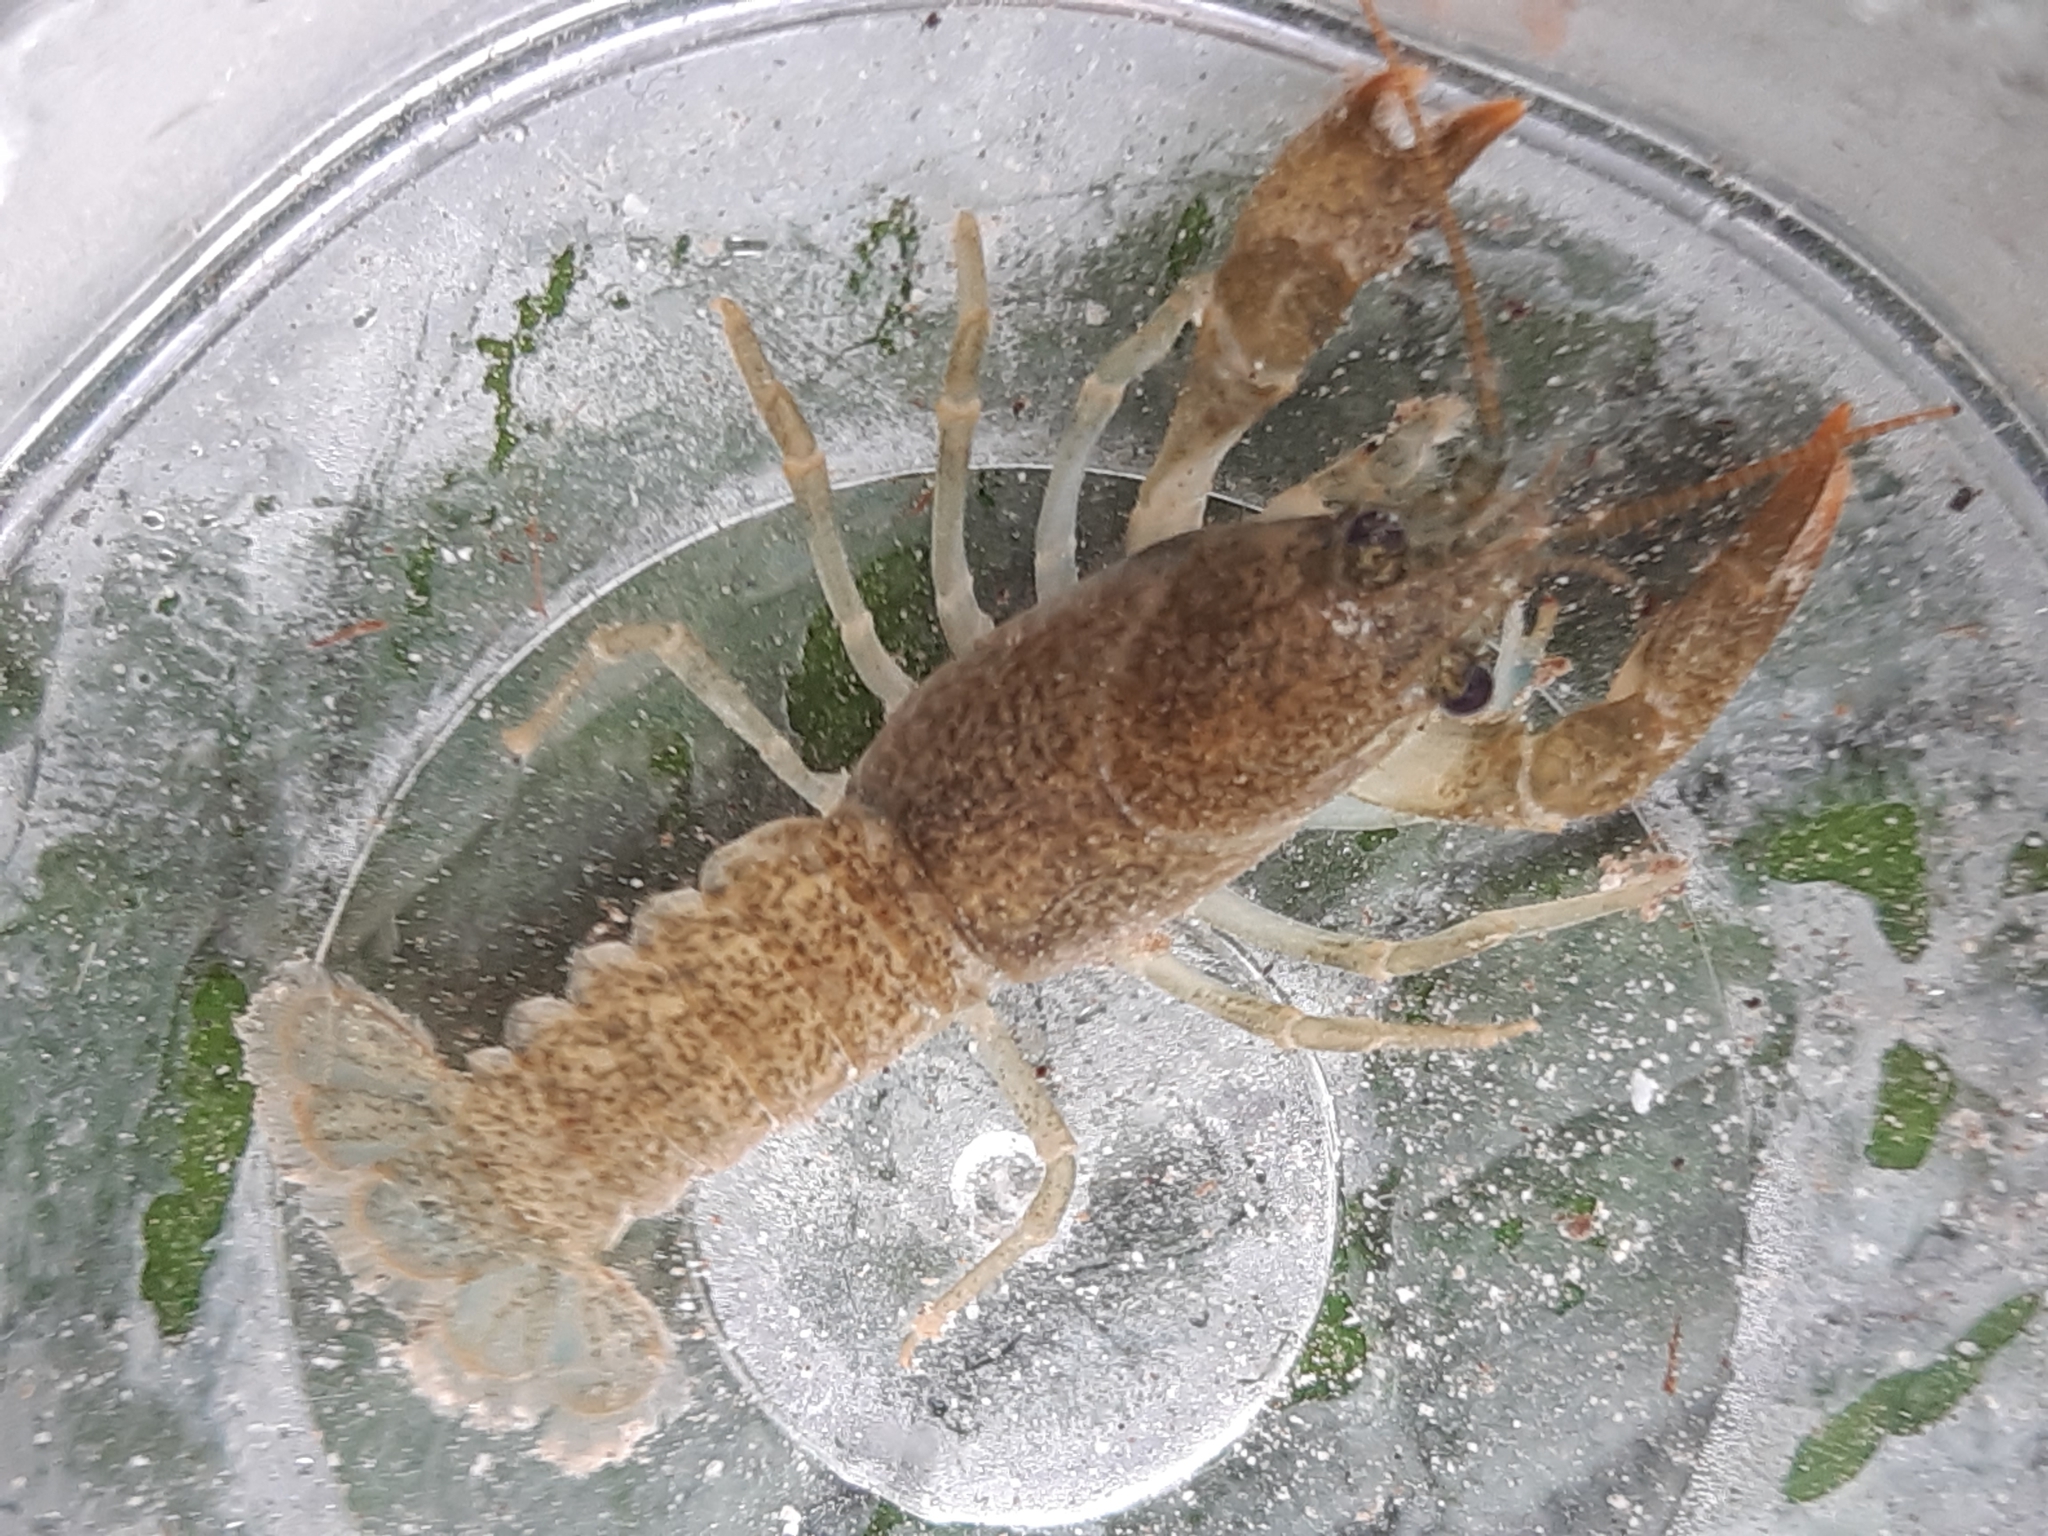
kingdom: Animalia
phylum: Arthropoda
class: Malacostraca
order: Decapoda
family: Astacidae
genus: Austropotamobius
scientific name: Austropotamobius torrentium
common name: Stone crayfish
